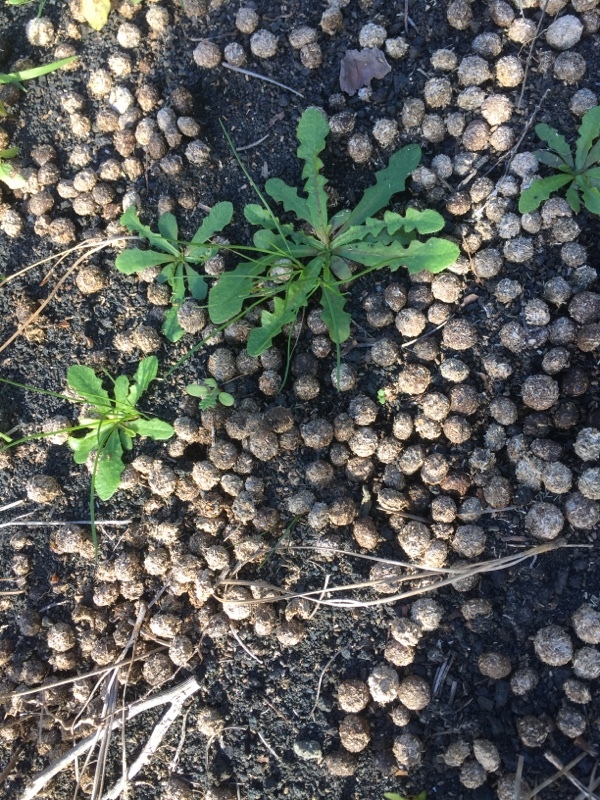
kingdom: Animalia
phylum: Chordata
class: Mammalia
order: Lagomorpha
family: Leporidae
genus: Oryctolagus
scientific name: Oryctolagus cuniculus
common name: European rabbit
